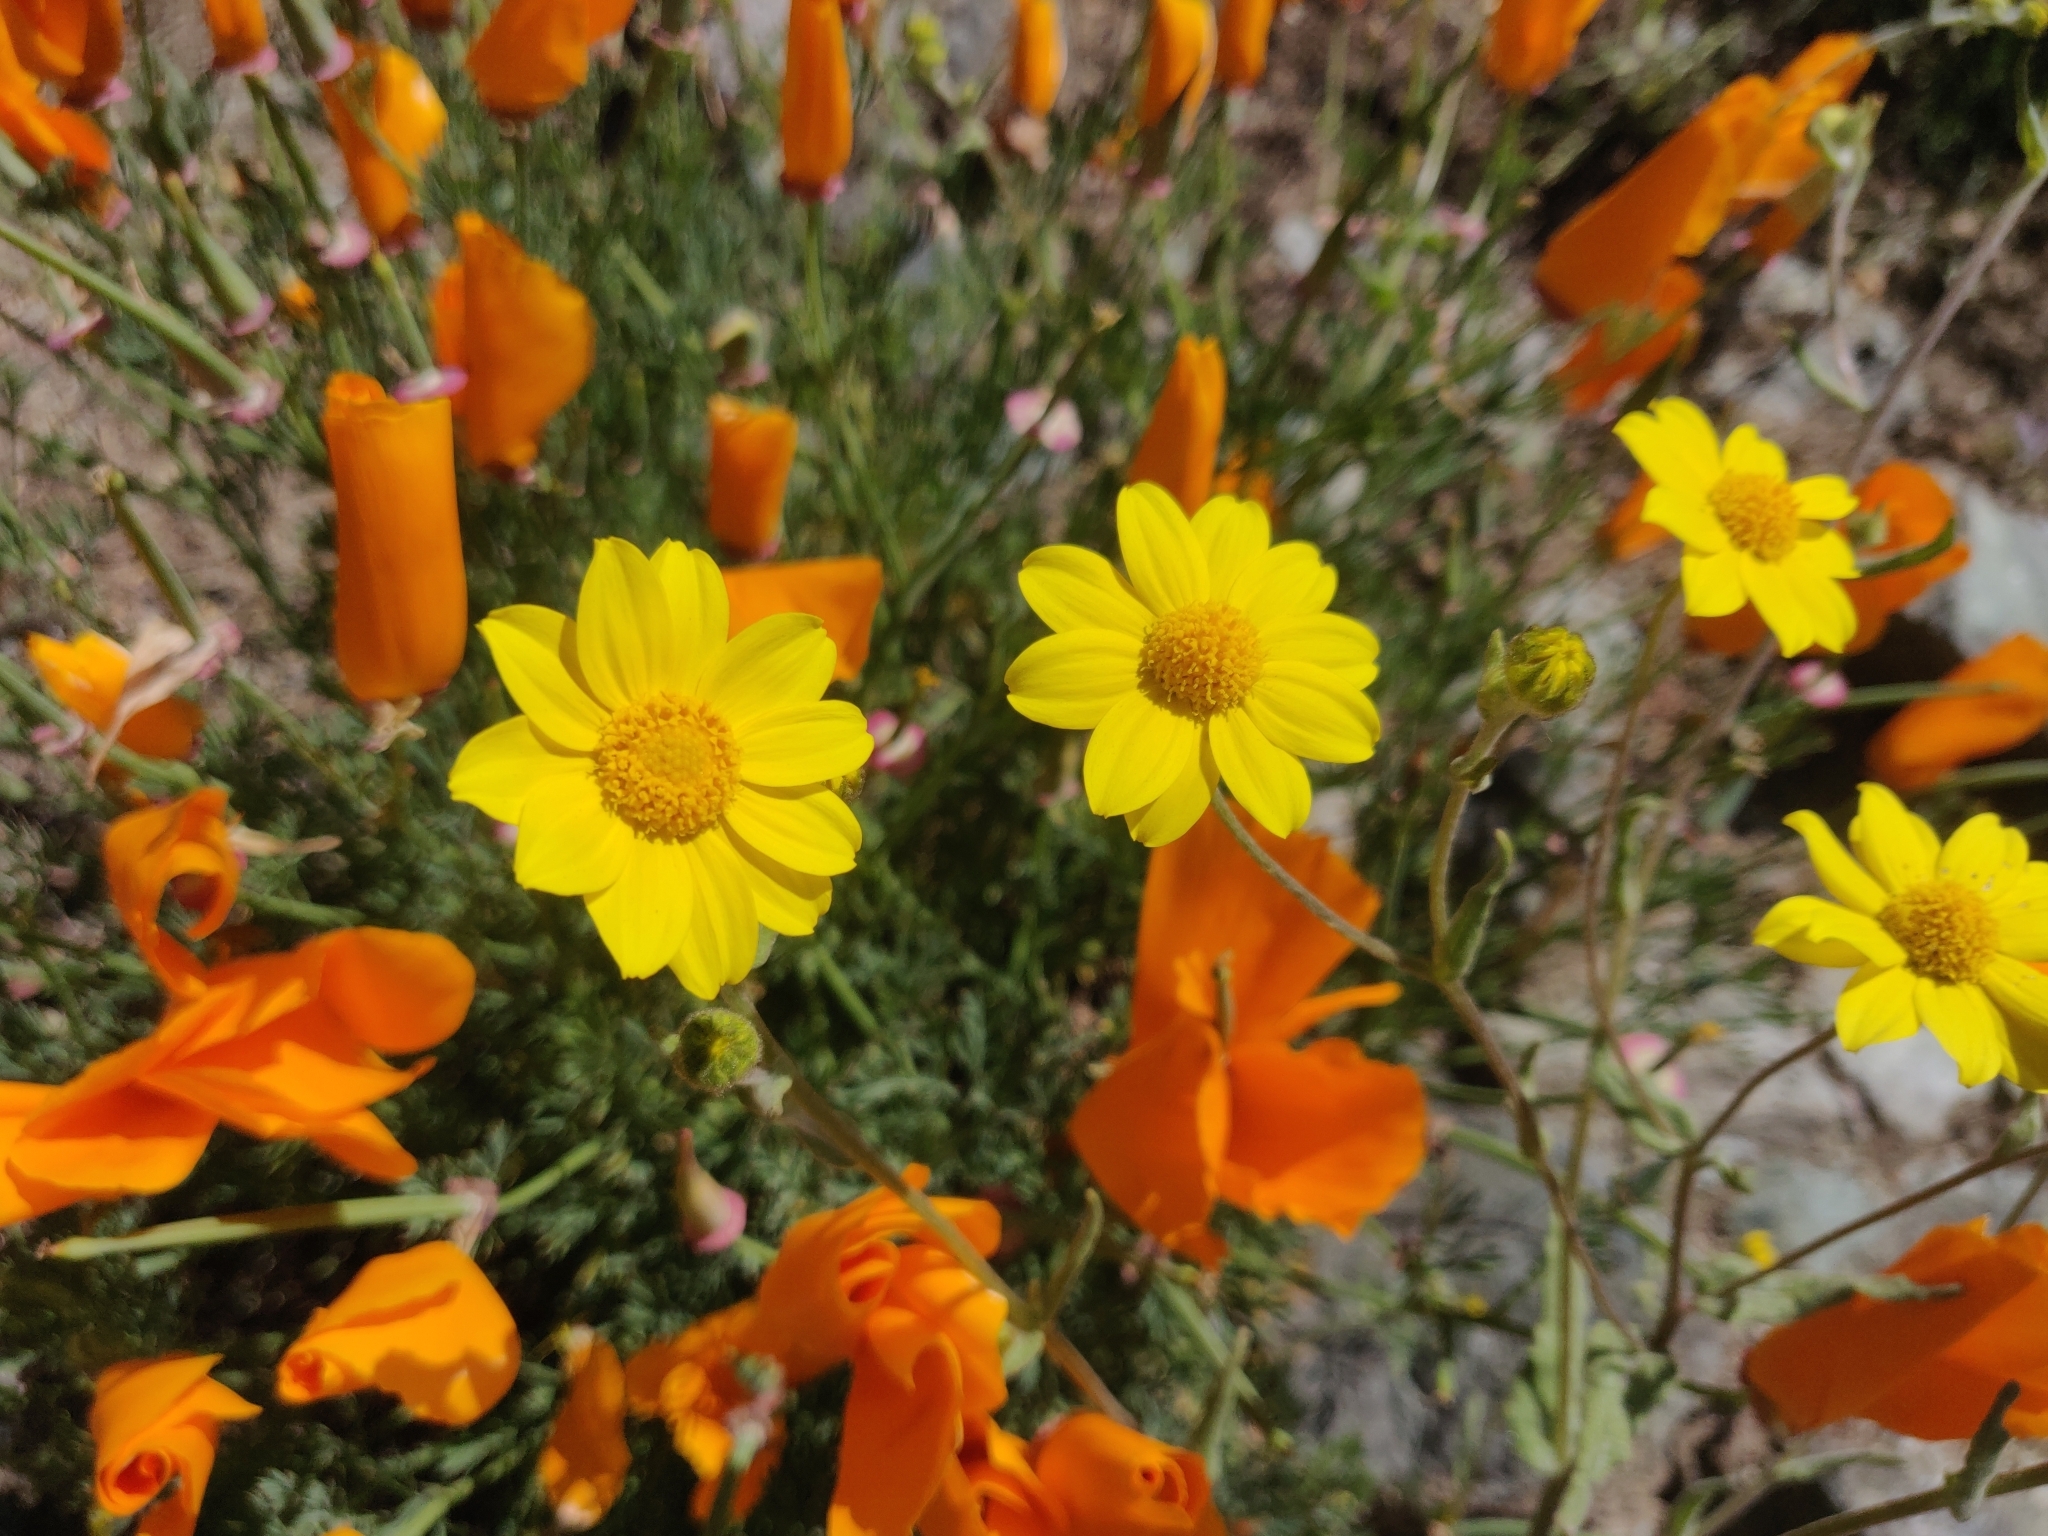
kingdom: Plantae
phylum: Tracheophyta
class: Magnoliopsida
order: Asterales
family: Asteraceae
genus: Monolopia
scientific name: Monolopia gracilens
